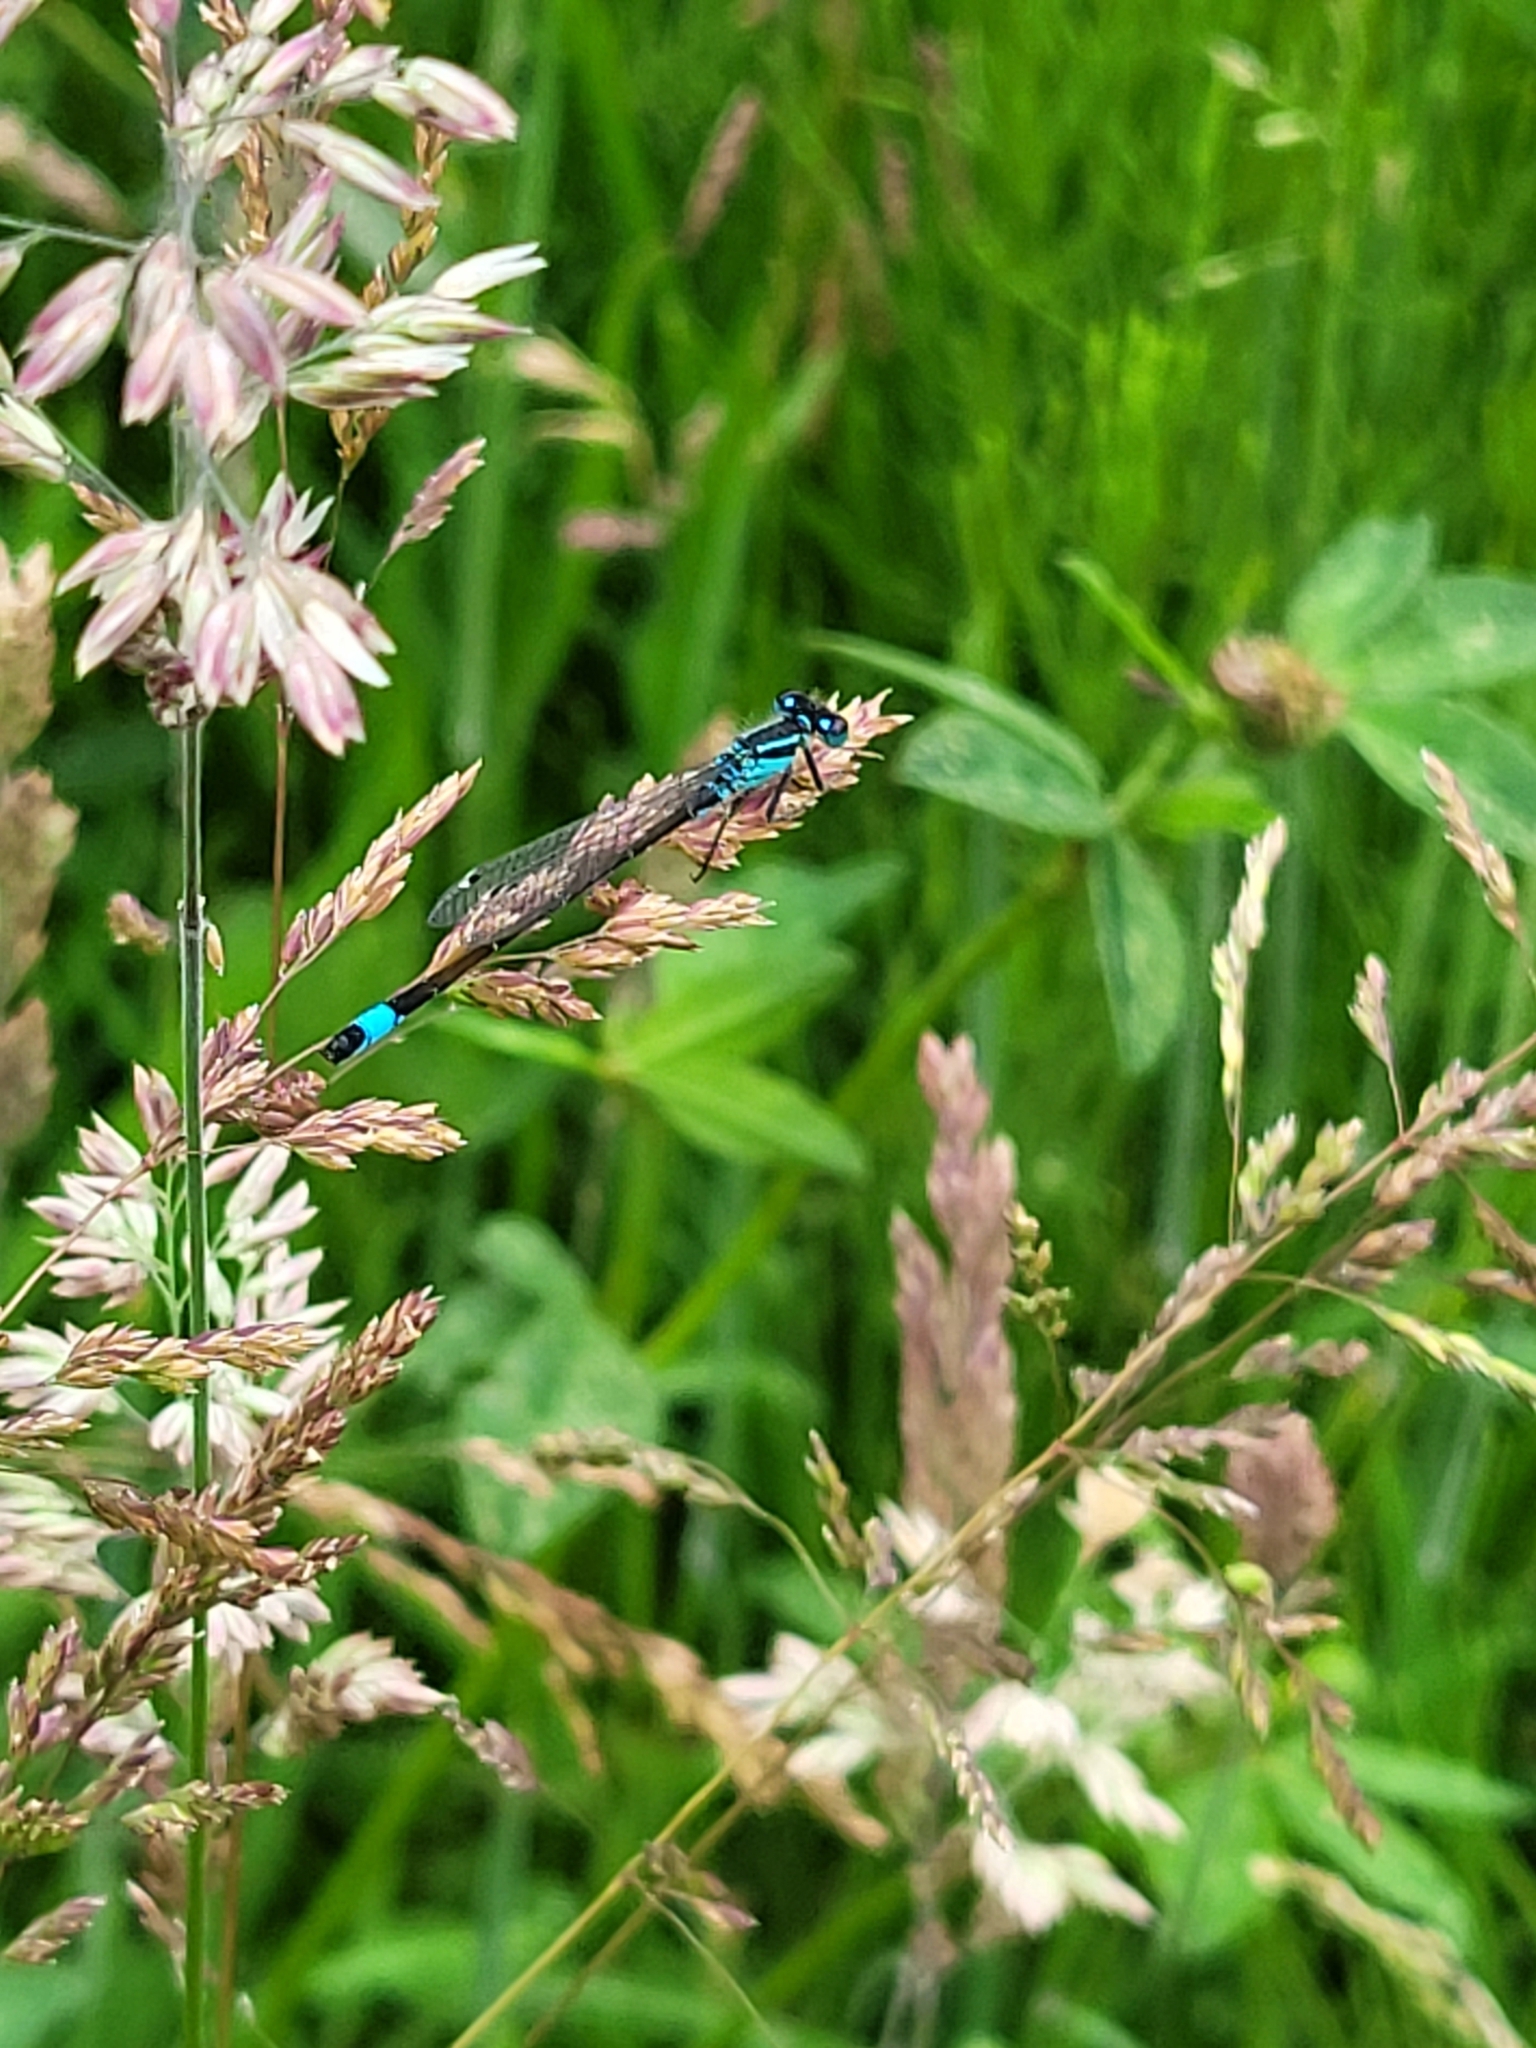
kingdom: Animalia
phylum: Arthropoda
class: Insecta
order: Odonata
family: Coenagrionidae
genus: Ischnura
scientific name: Ischnura elegans
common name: Blue-tailed damselfly
